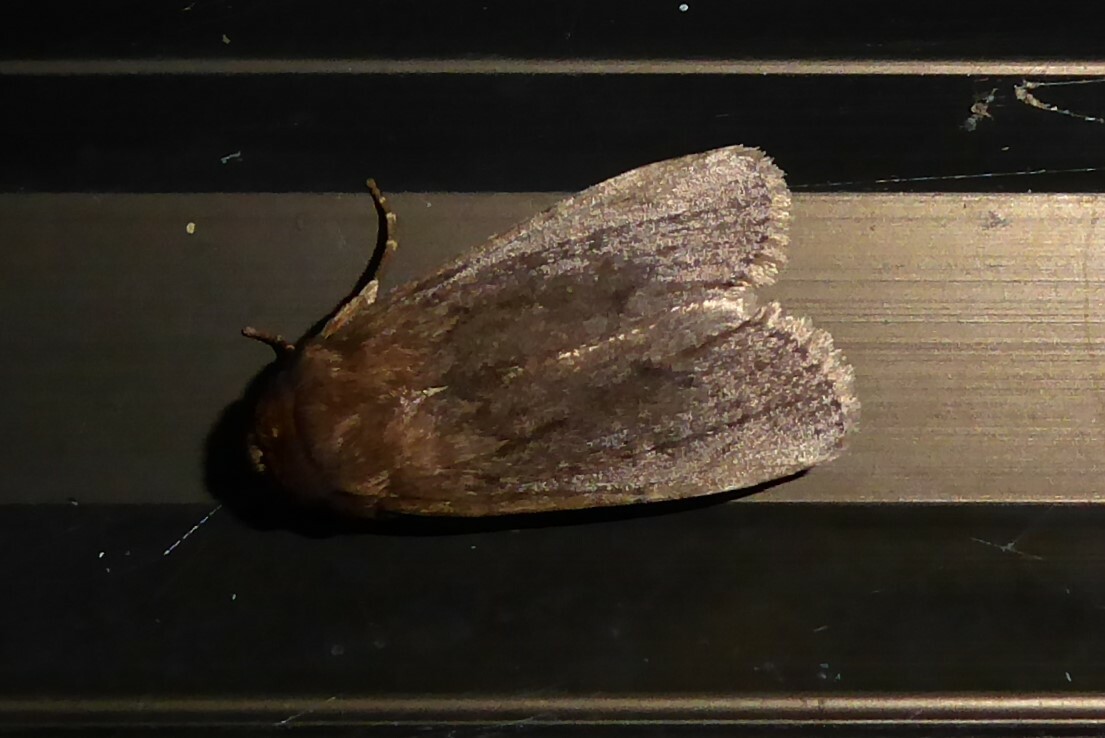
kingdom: Animalia
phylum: Arthropoda
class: Insecta
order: Lepidoptera
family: Noctuidae
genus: Bityla
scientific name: Bityla defigurata
